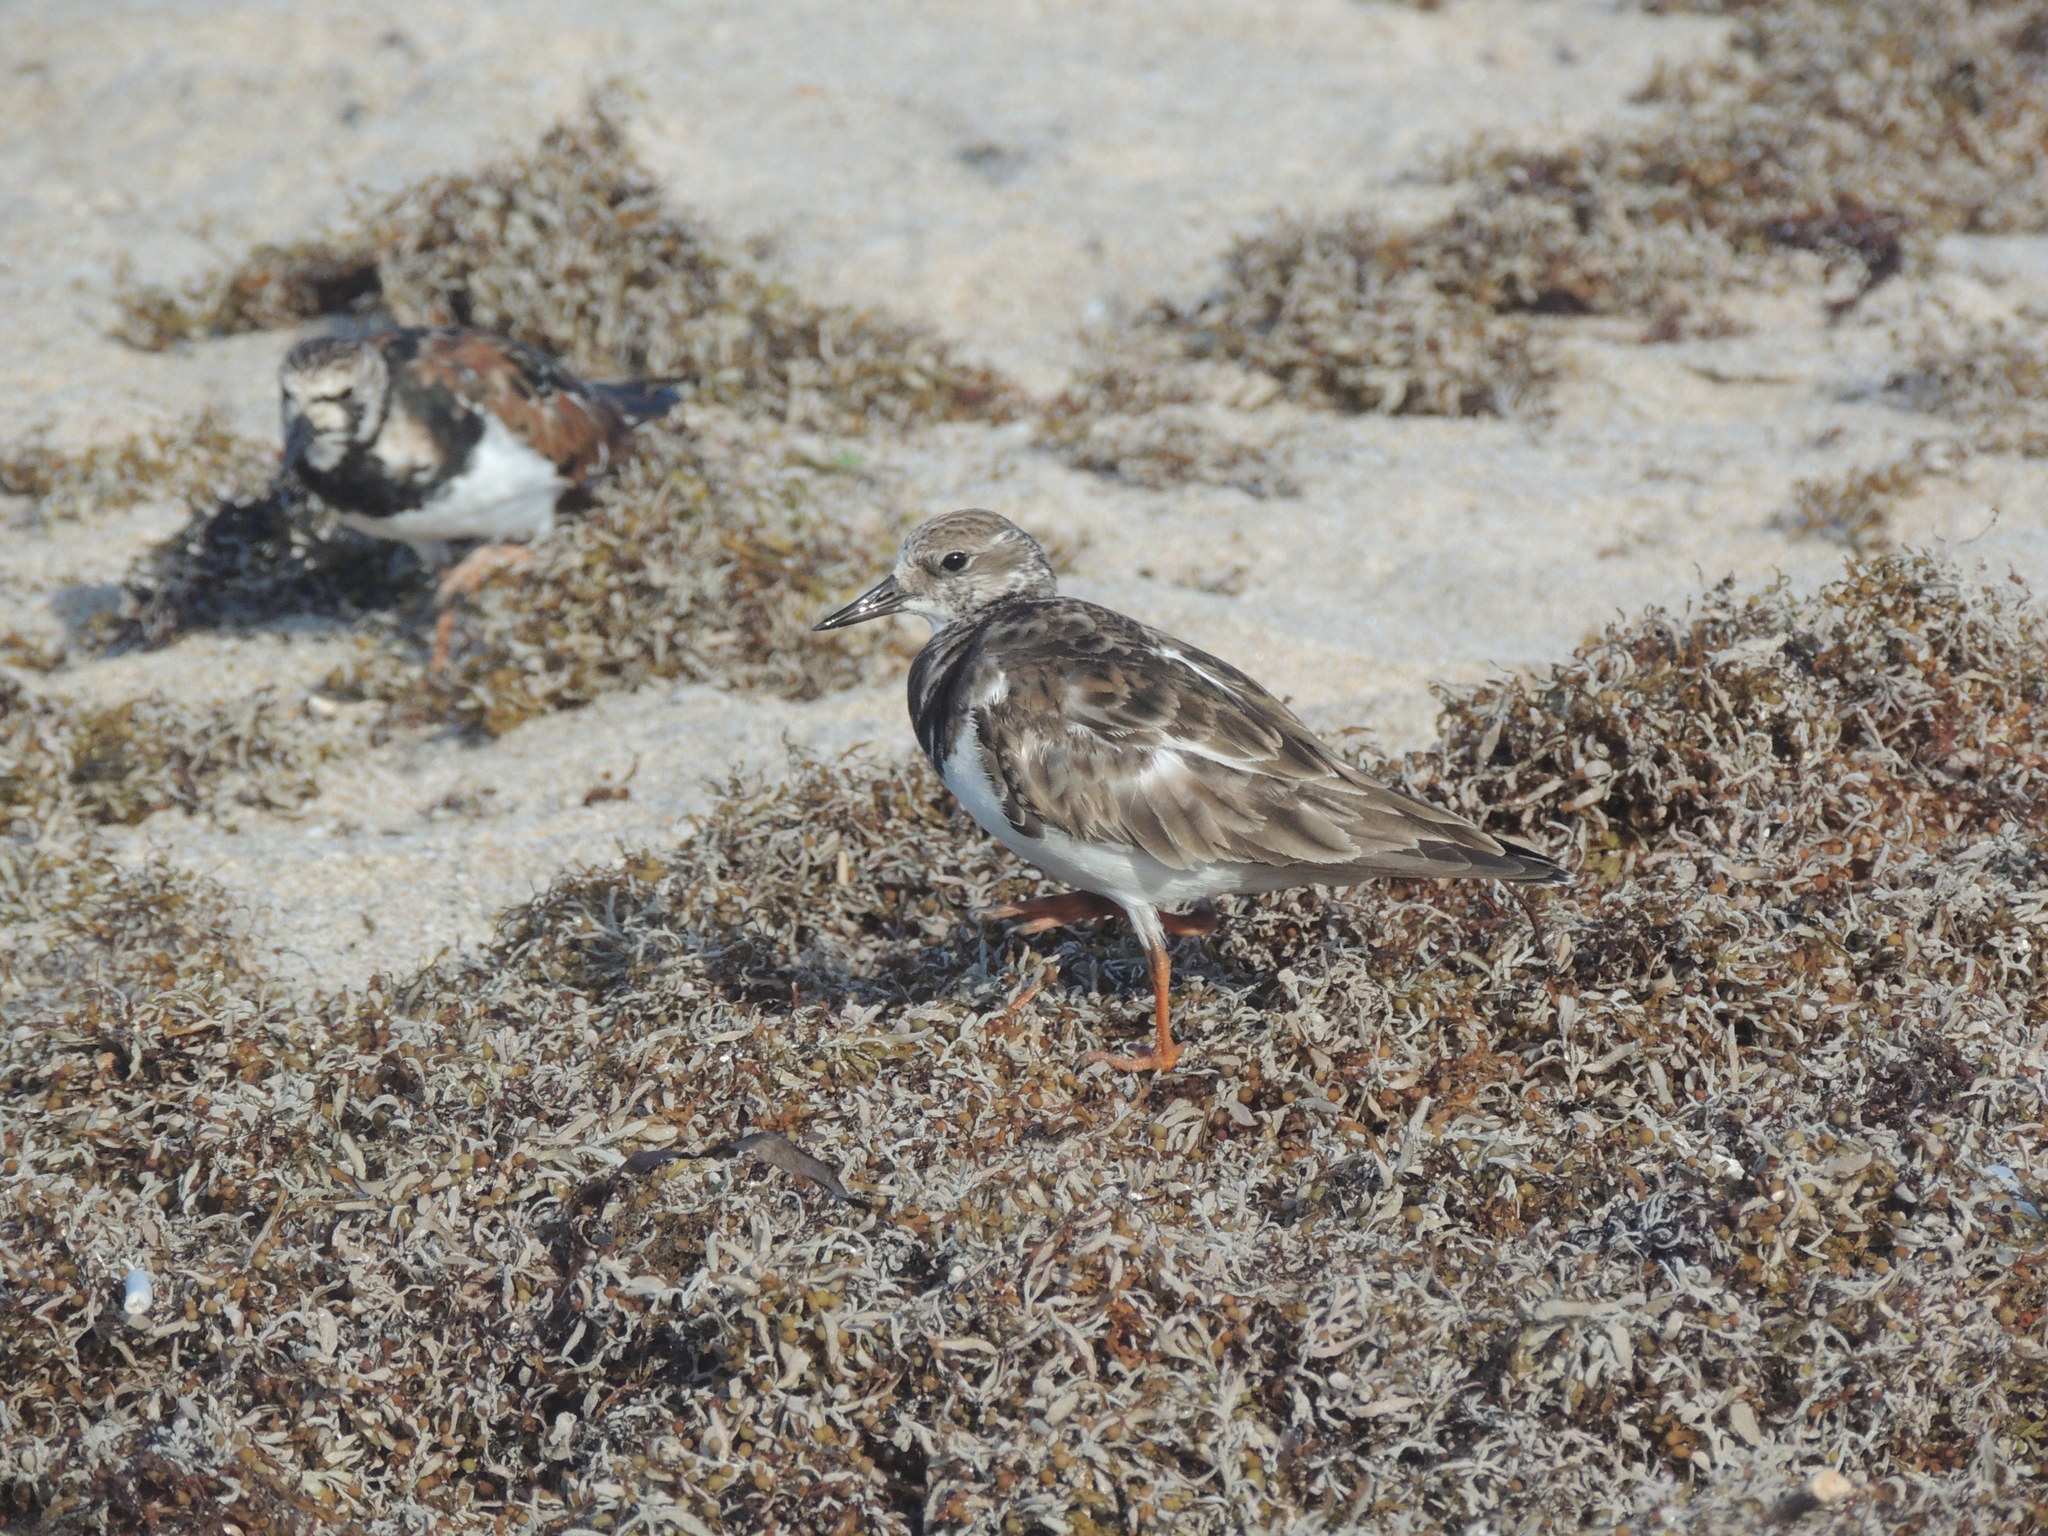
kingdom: Animalia
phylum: Chordata
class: Aves
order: Charadriiformes
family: Scolopacidae
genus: Arenaria
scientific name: Arenaria interpres
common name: Ruddy turnstone
